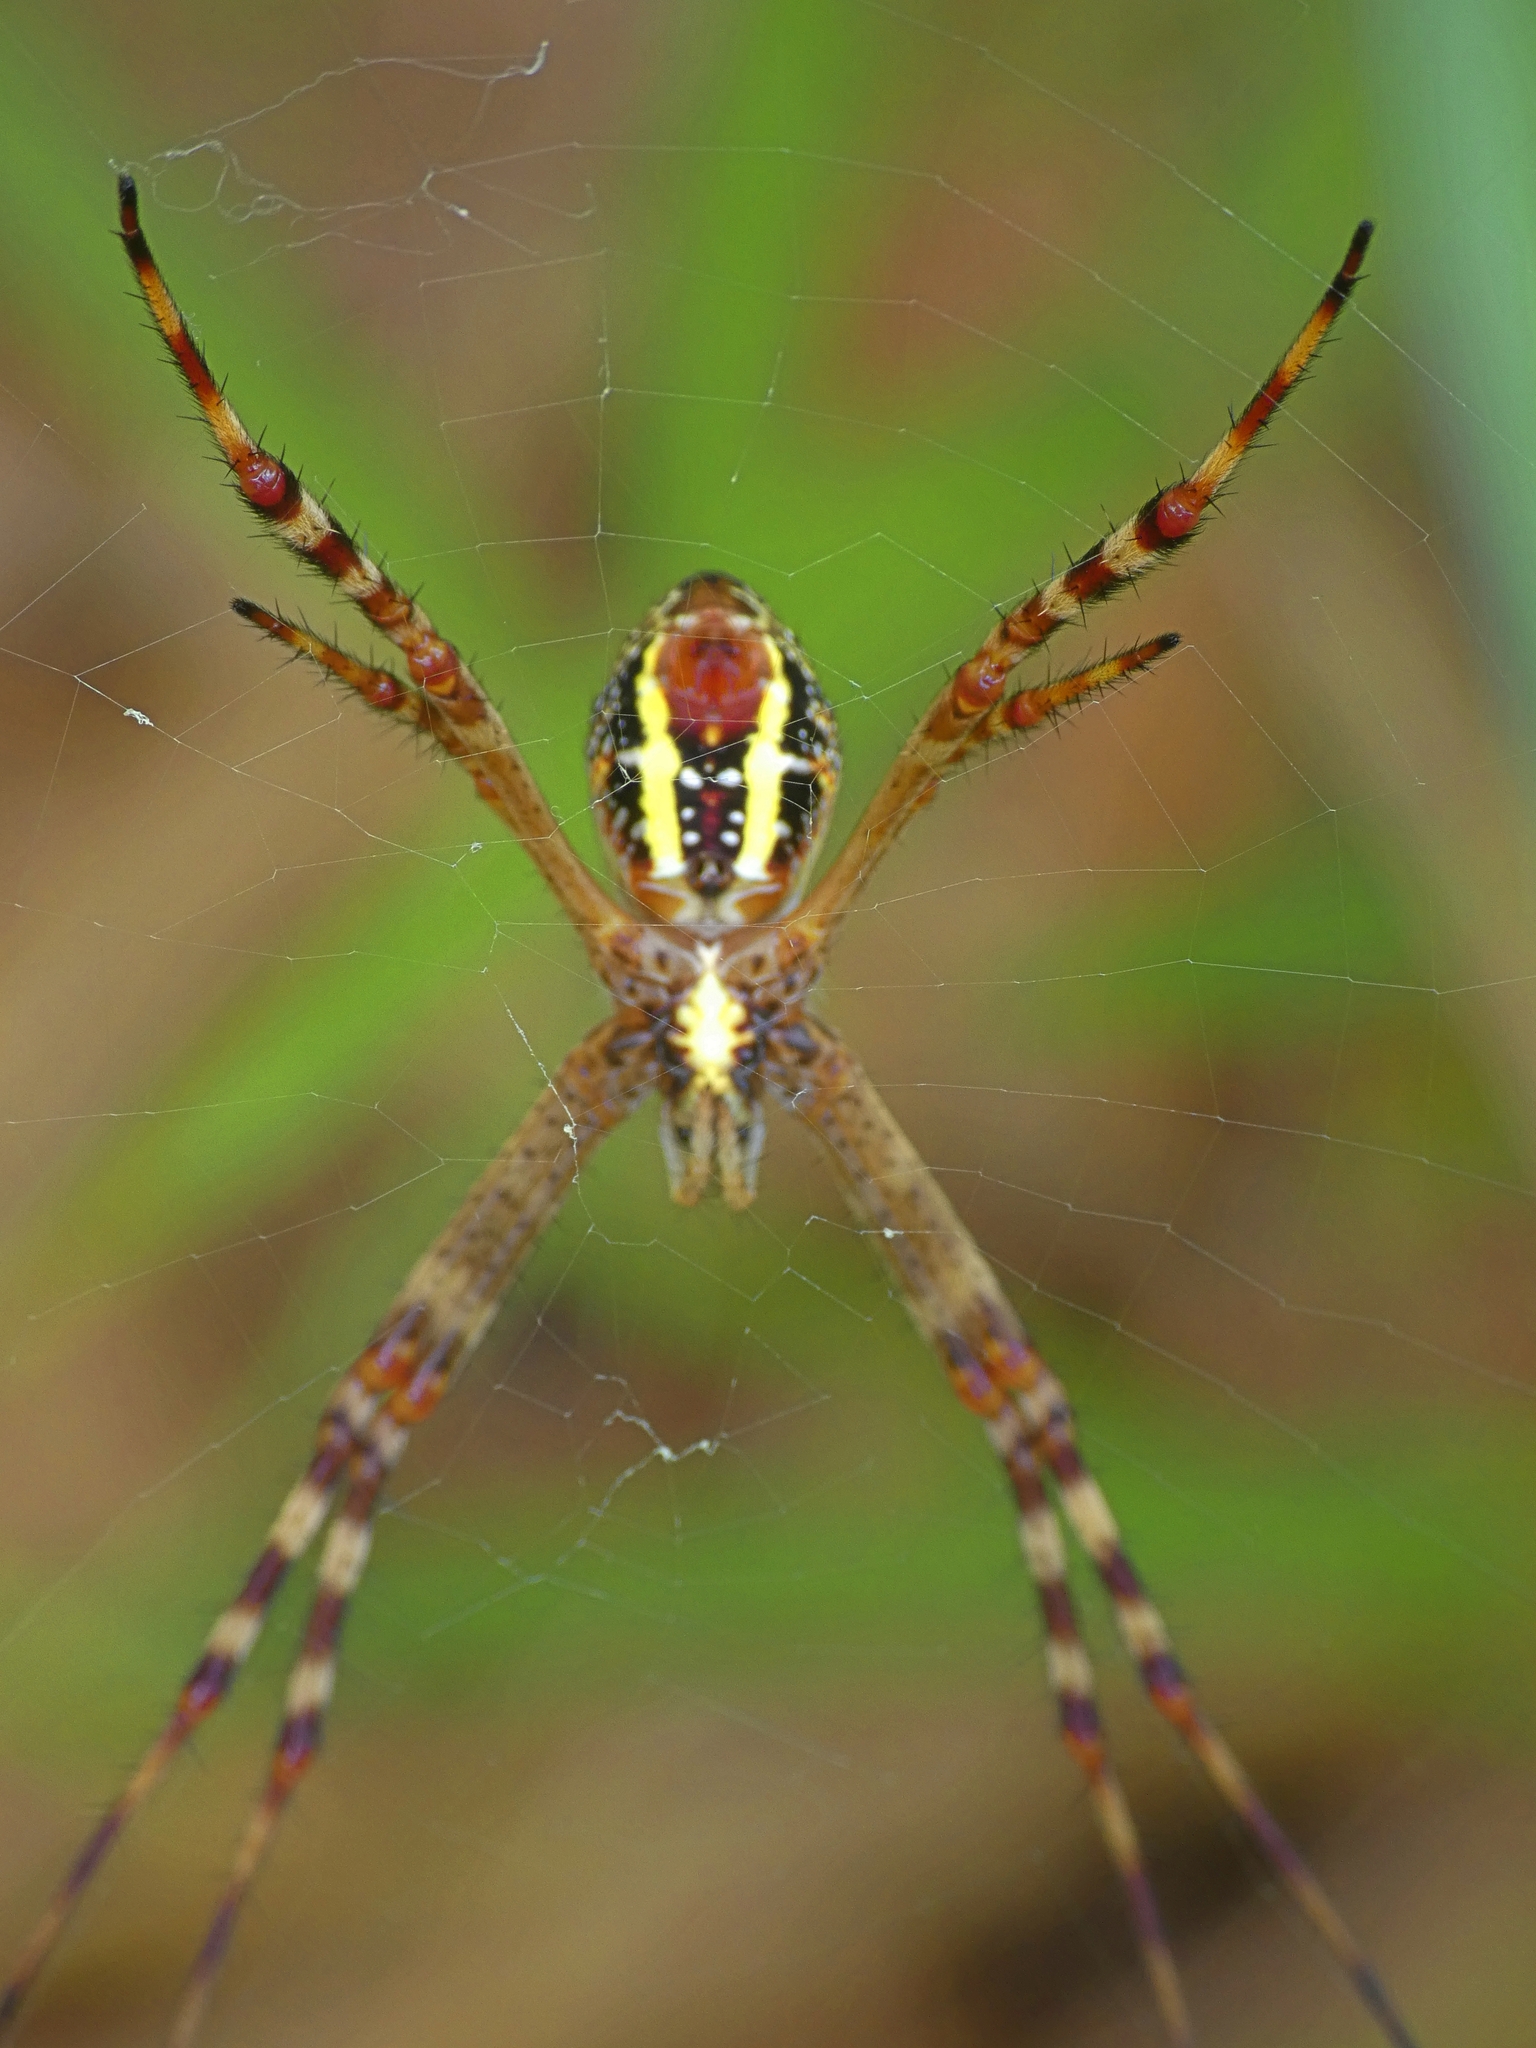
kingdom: Animalia
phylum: Arthropoda
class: Arachnida
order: Araneae
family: Araneidae
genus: Argiope
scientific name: Argiope picta
